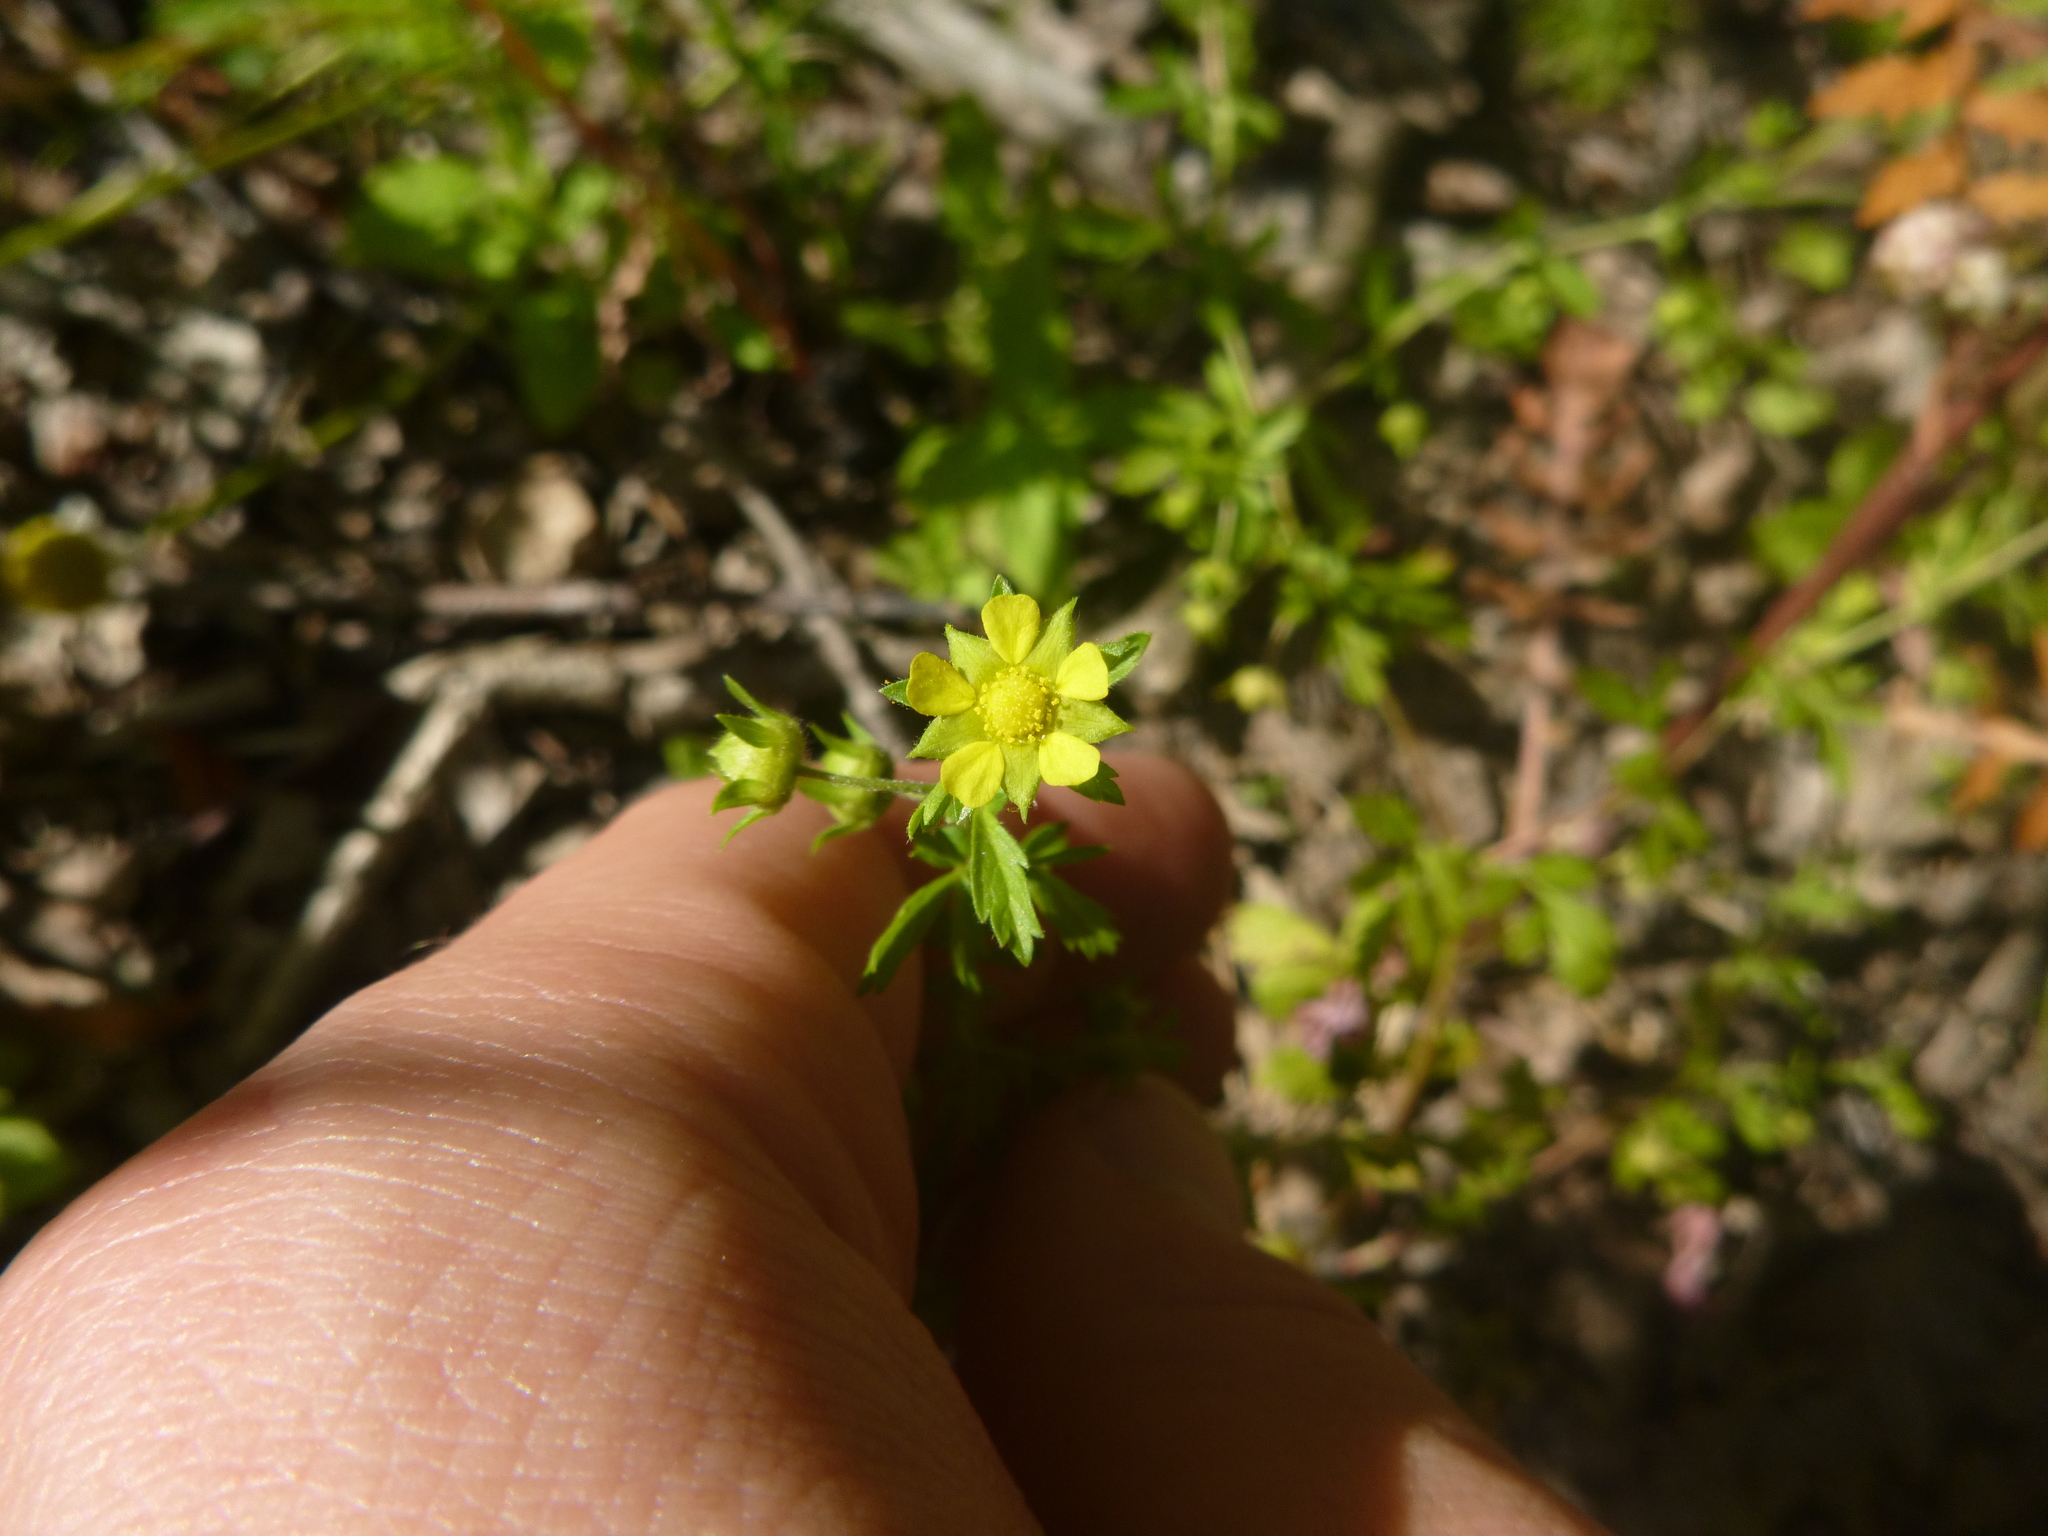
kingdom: Plantae
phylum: Tracheophyta
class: Magnoliopsida
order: Rosales
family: Rosaceae
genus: Potentilla
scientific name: Potentilla supina
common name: Prostrate cinquefoil
